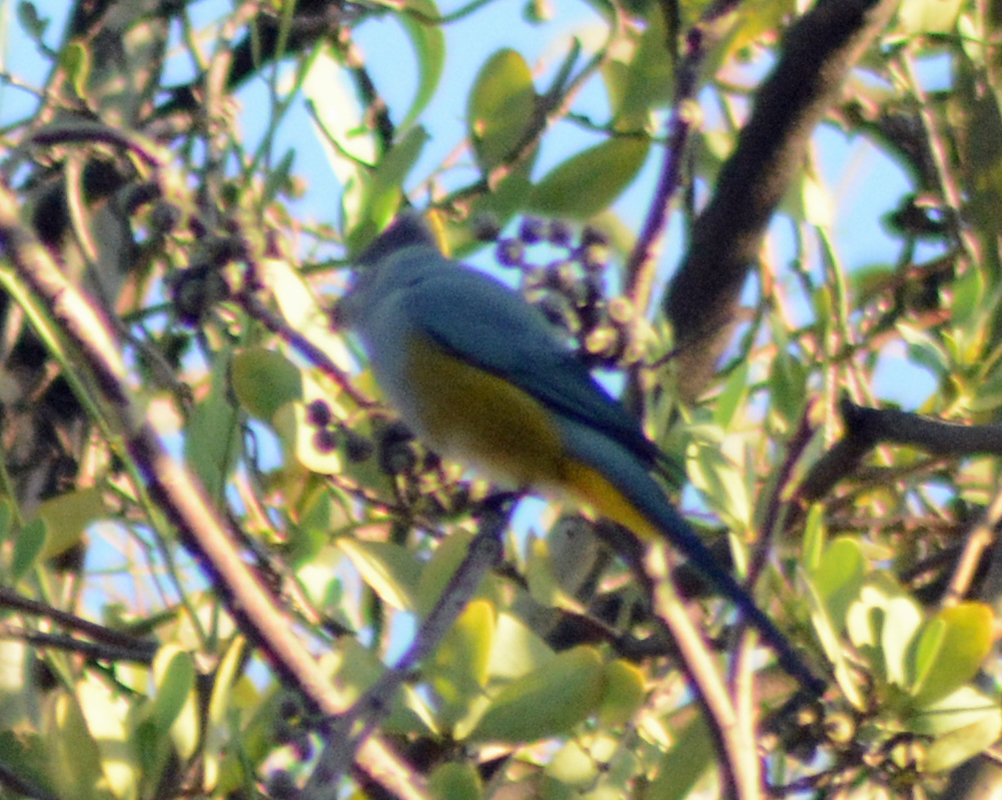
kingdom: Animalia
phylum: Chordata
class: Aves
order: Passeriformes
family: Ptilogonatidae
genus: Ptilogonys
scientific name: Ptilogonys cinereus
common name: Gray silky-flycatcher
